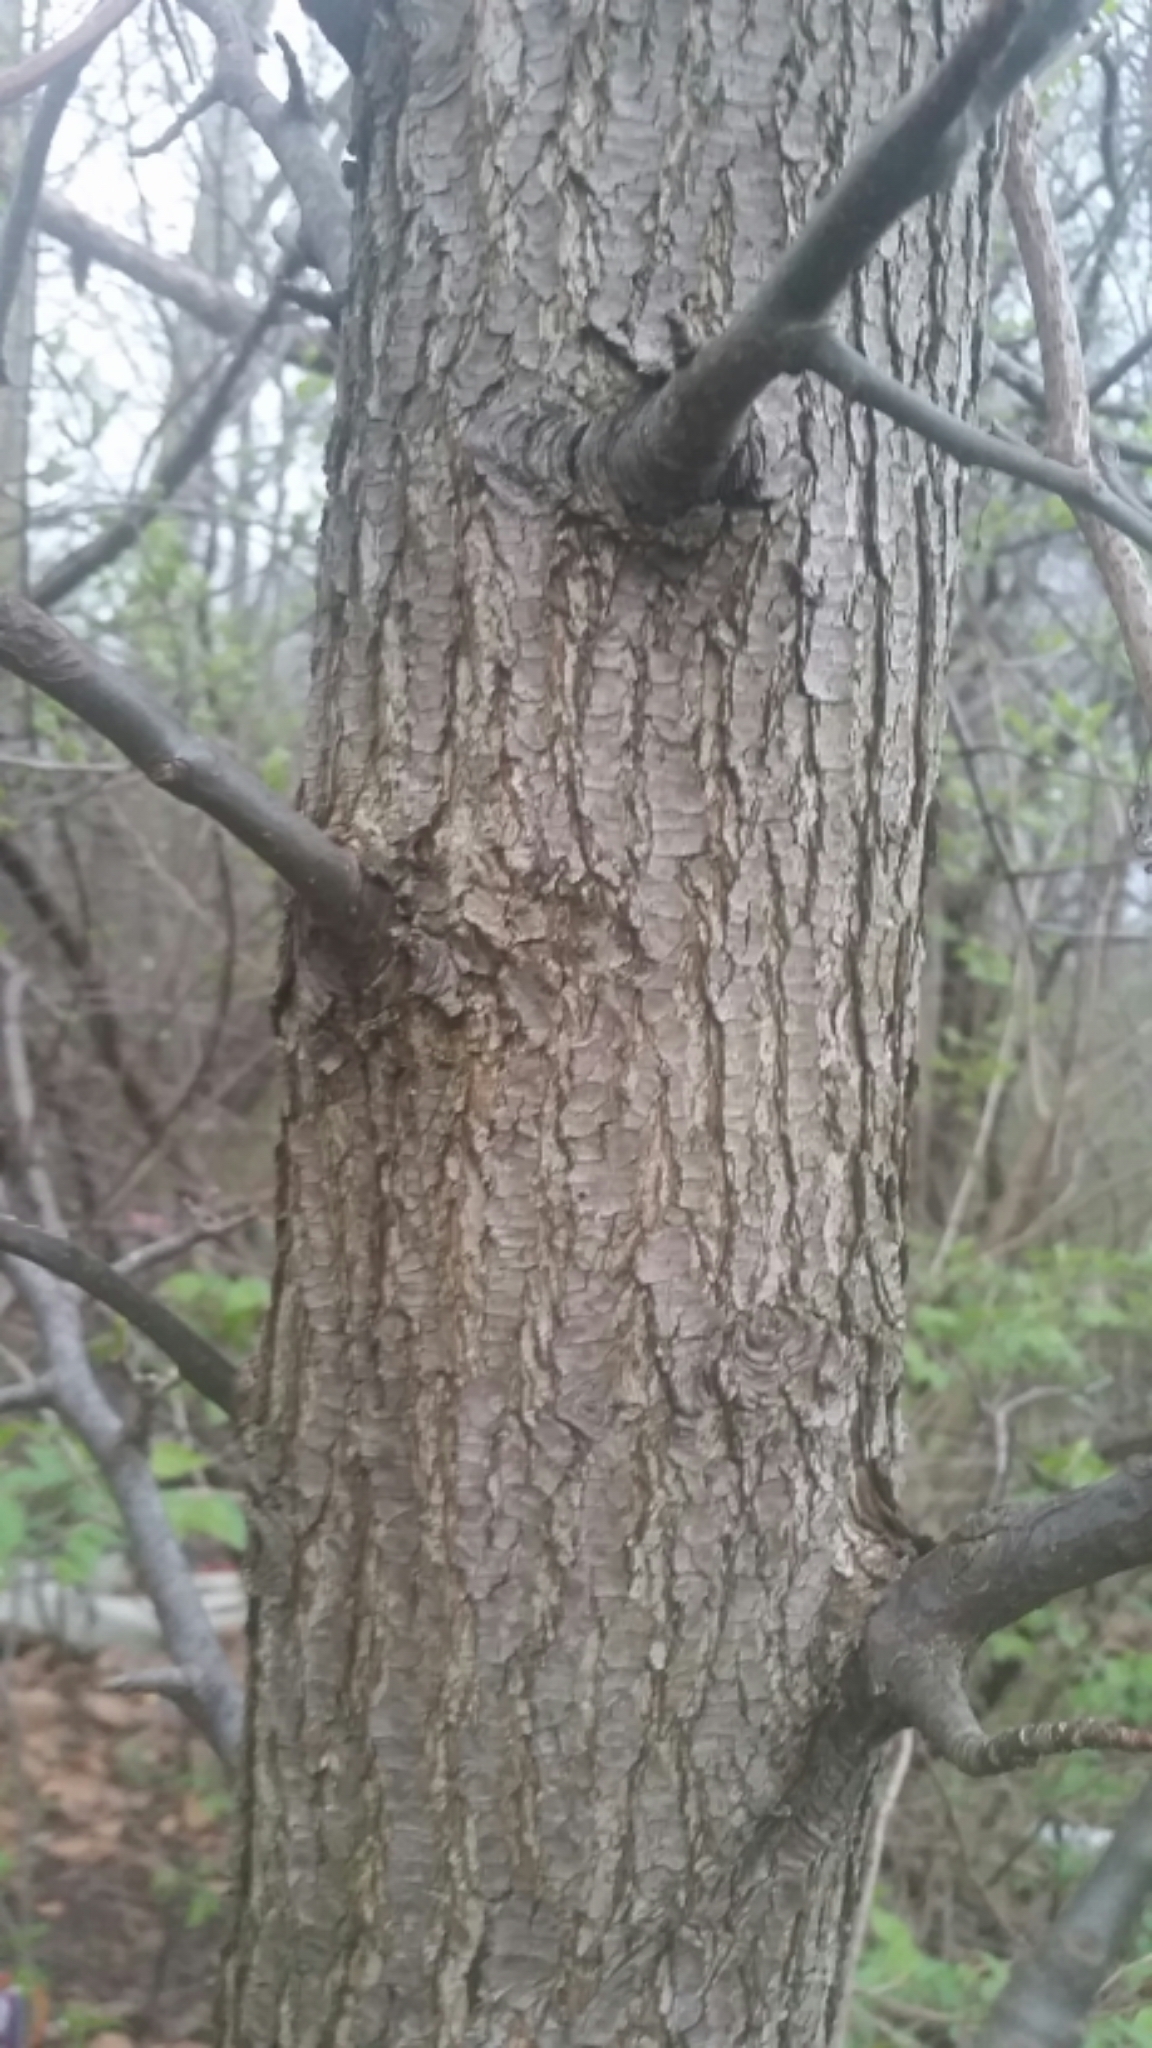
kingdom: Plantae
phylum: Tracheophyta
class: Magnoliopsida
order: Rosales
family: Rosaceae
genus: Pyrus
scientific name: Pyrus calleryana
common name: Callery pear
